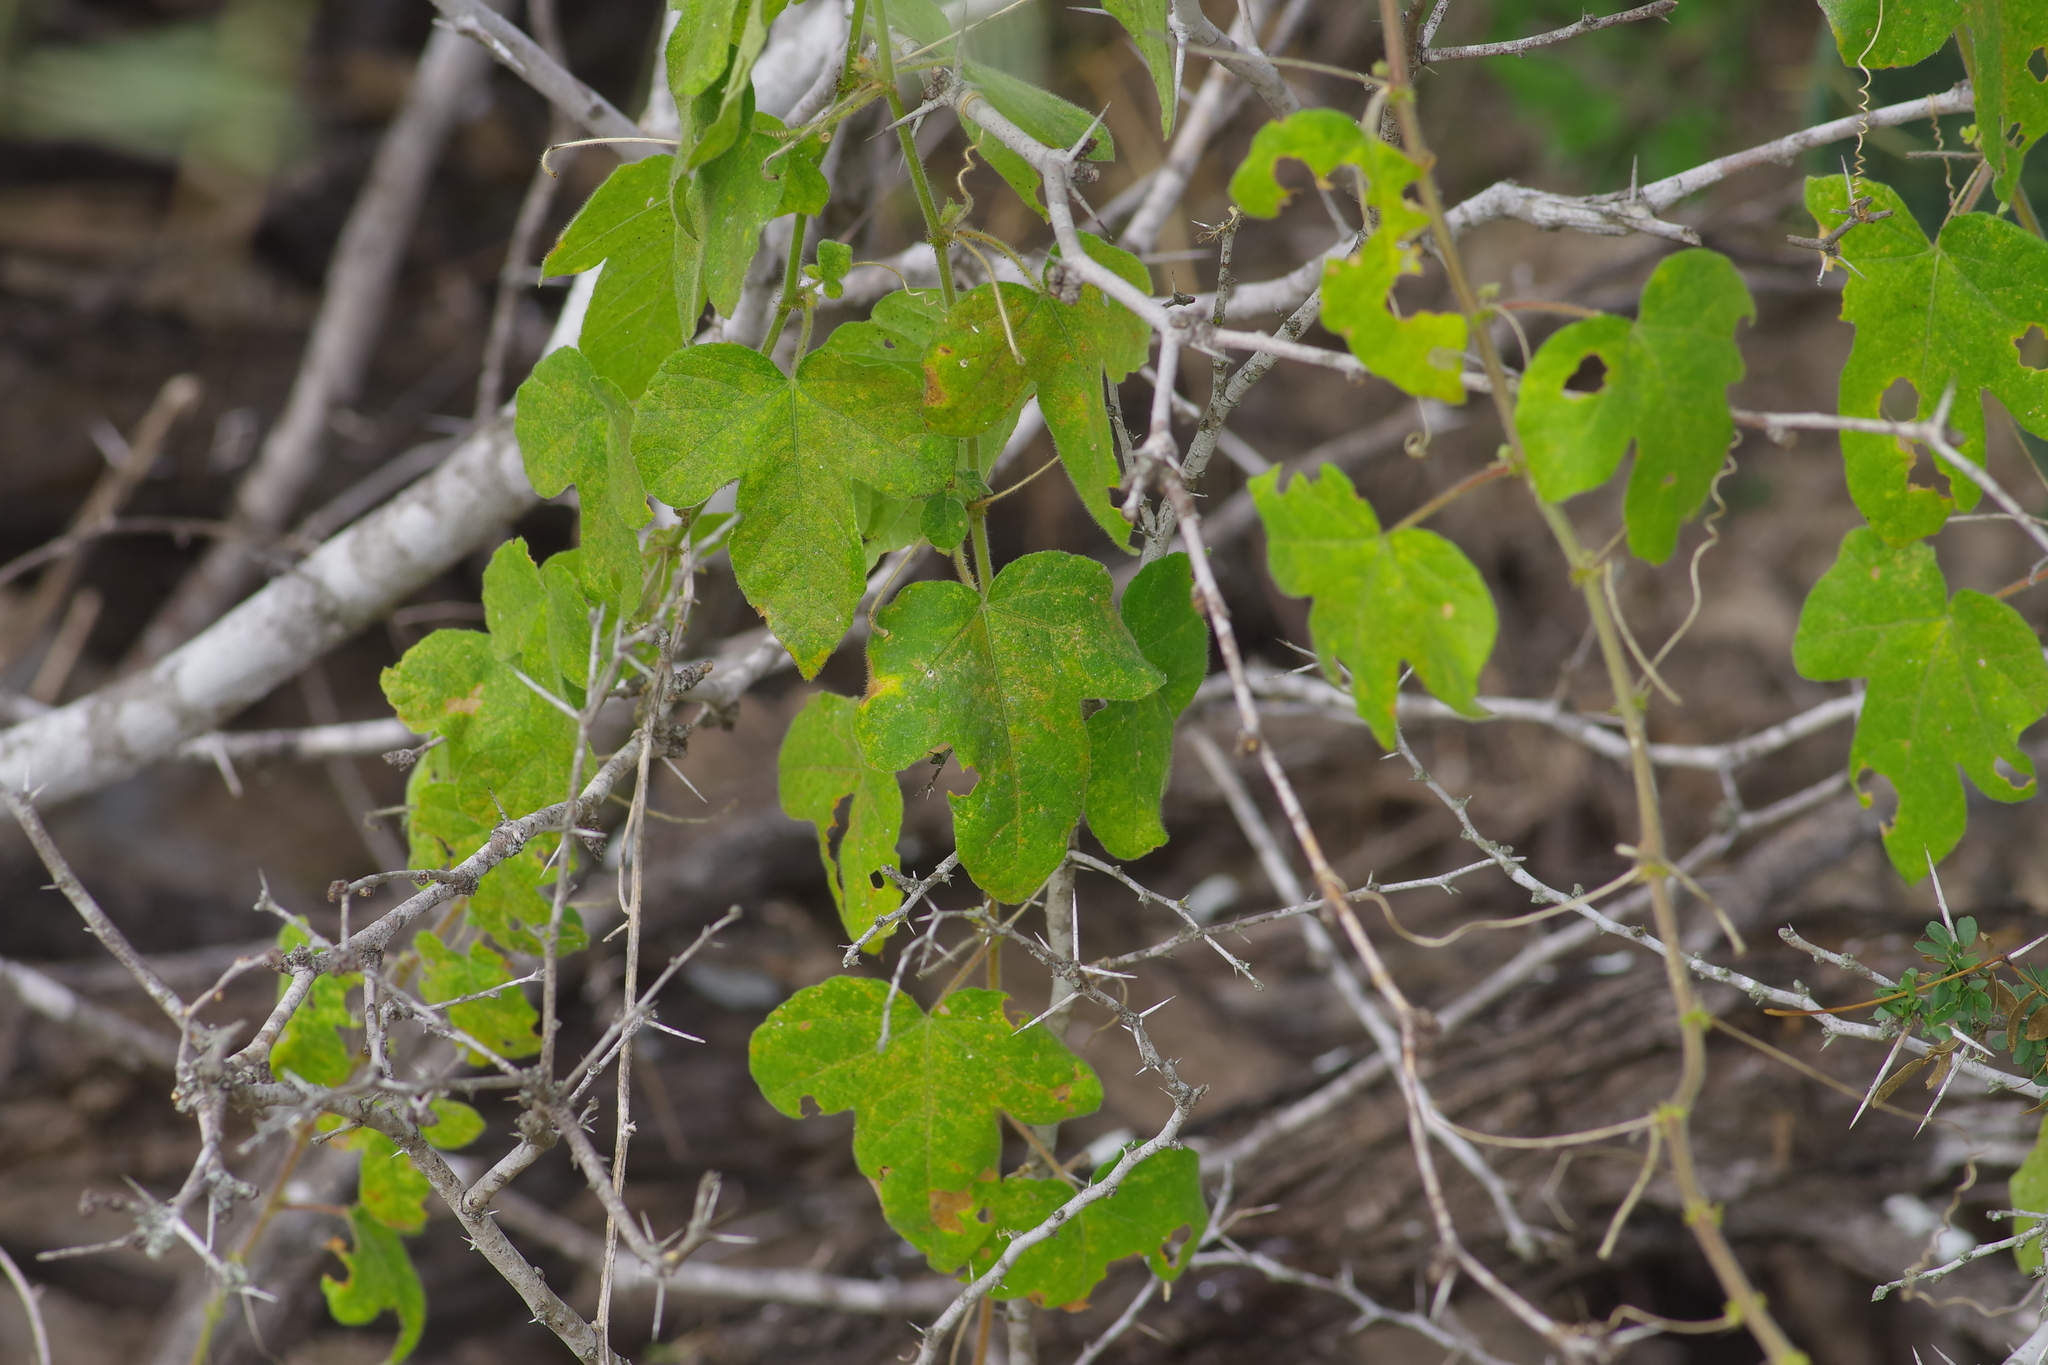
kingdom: Plantae
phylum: Tracheophyta
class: Magnoliopsida
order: Malpighiales
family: Passifloraceae
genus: Passiflora
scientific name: Passiflora foetida
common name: Fetid passionflower
